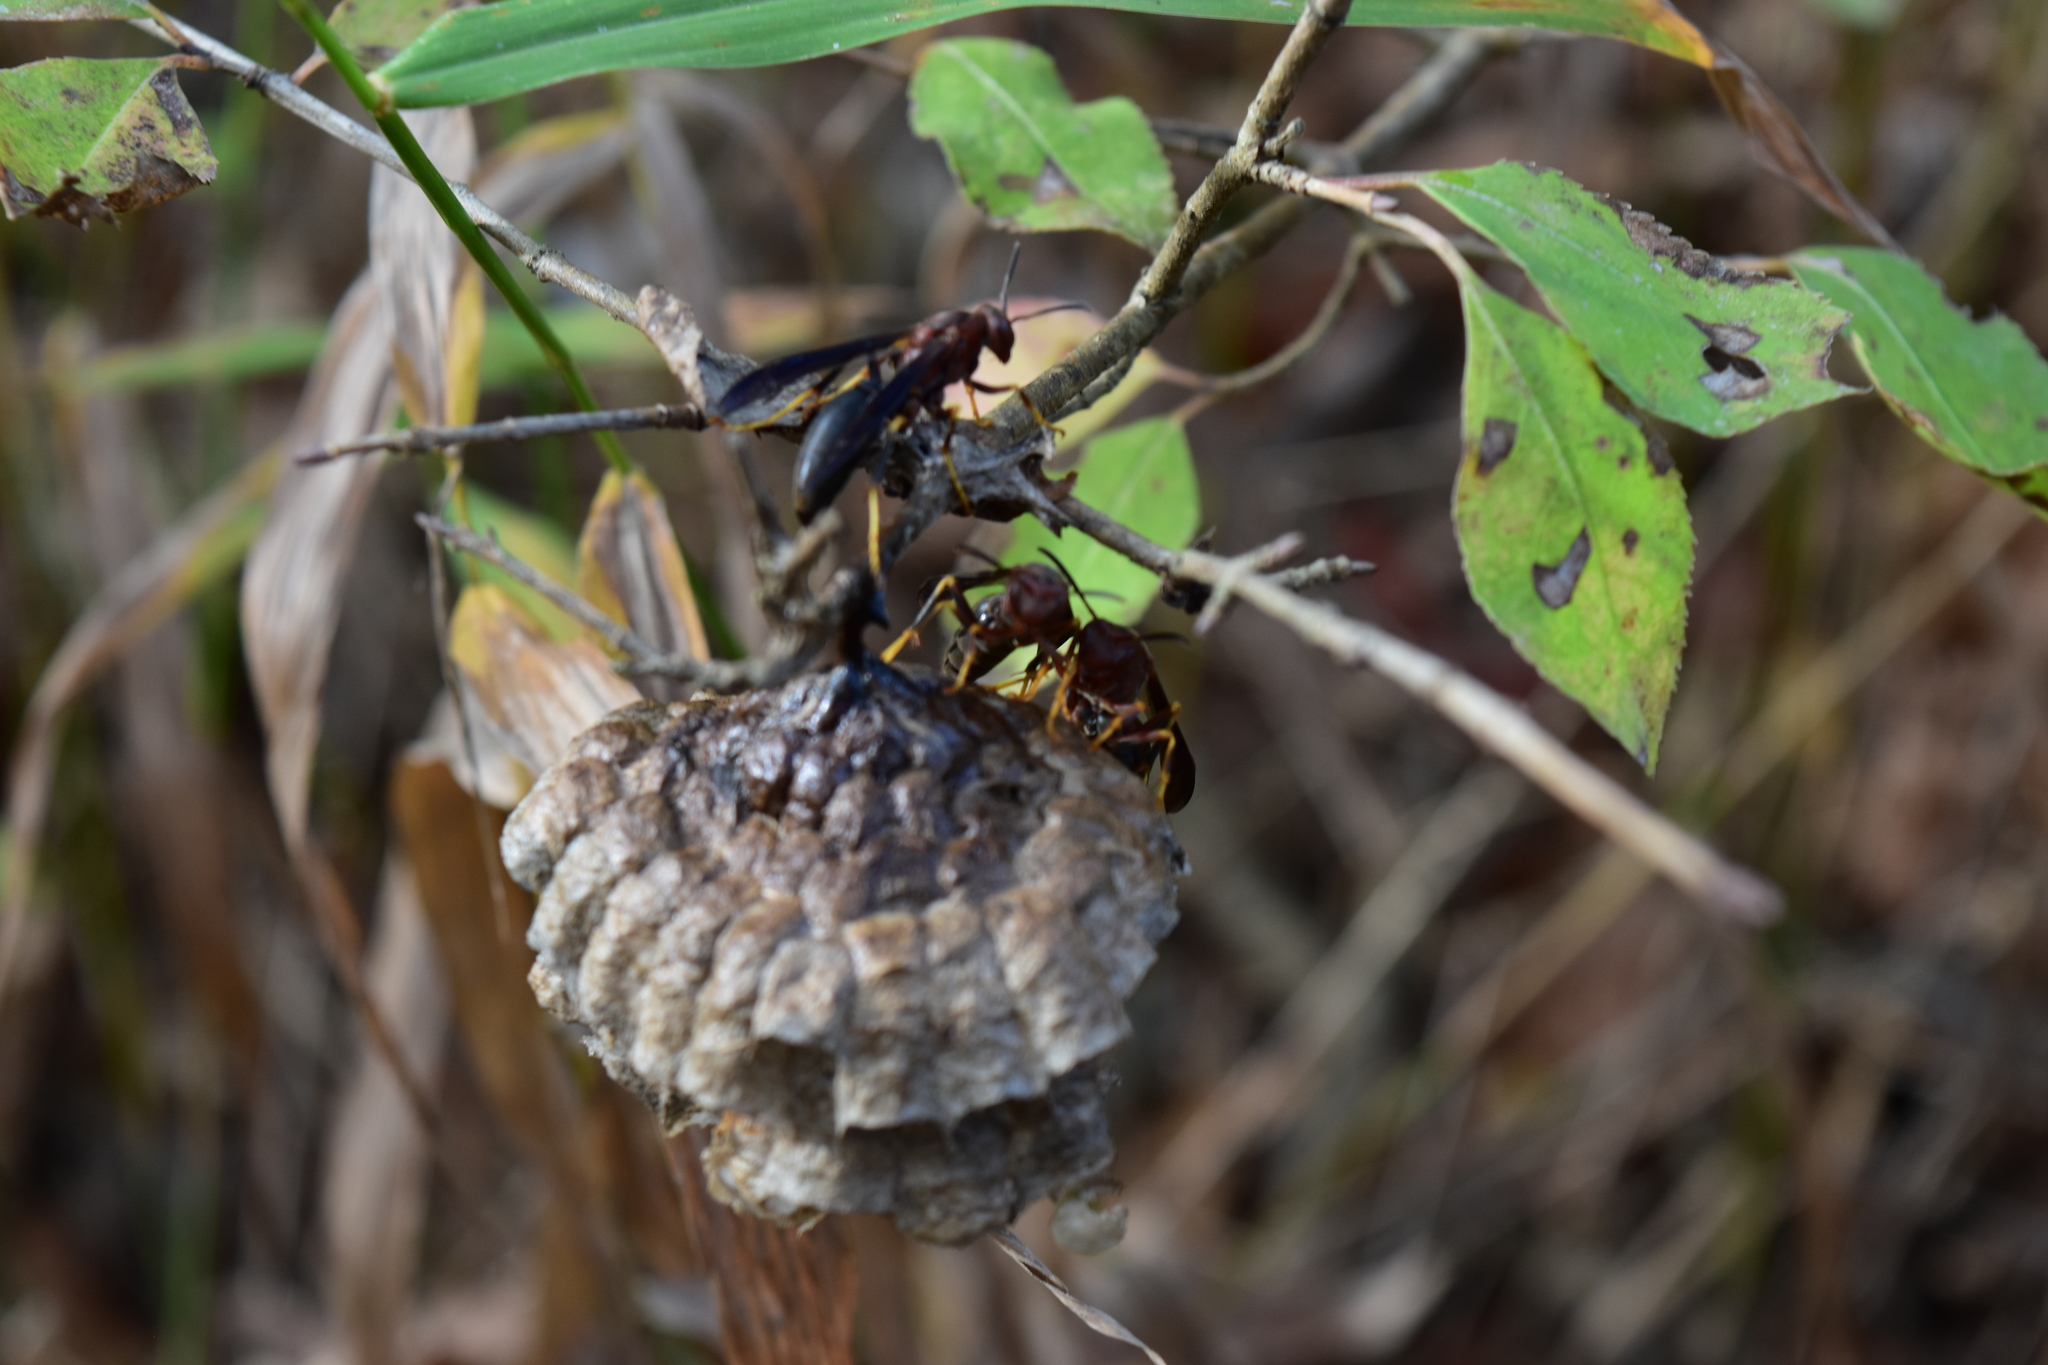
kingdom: Animalia
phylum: Arthropoda
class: Insecta
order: Hymenoptera
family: Eumenidae
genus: Polistes
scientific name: Polistes metricus
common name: Metric paper wasp
